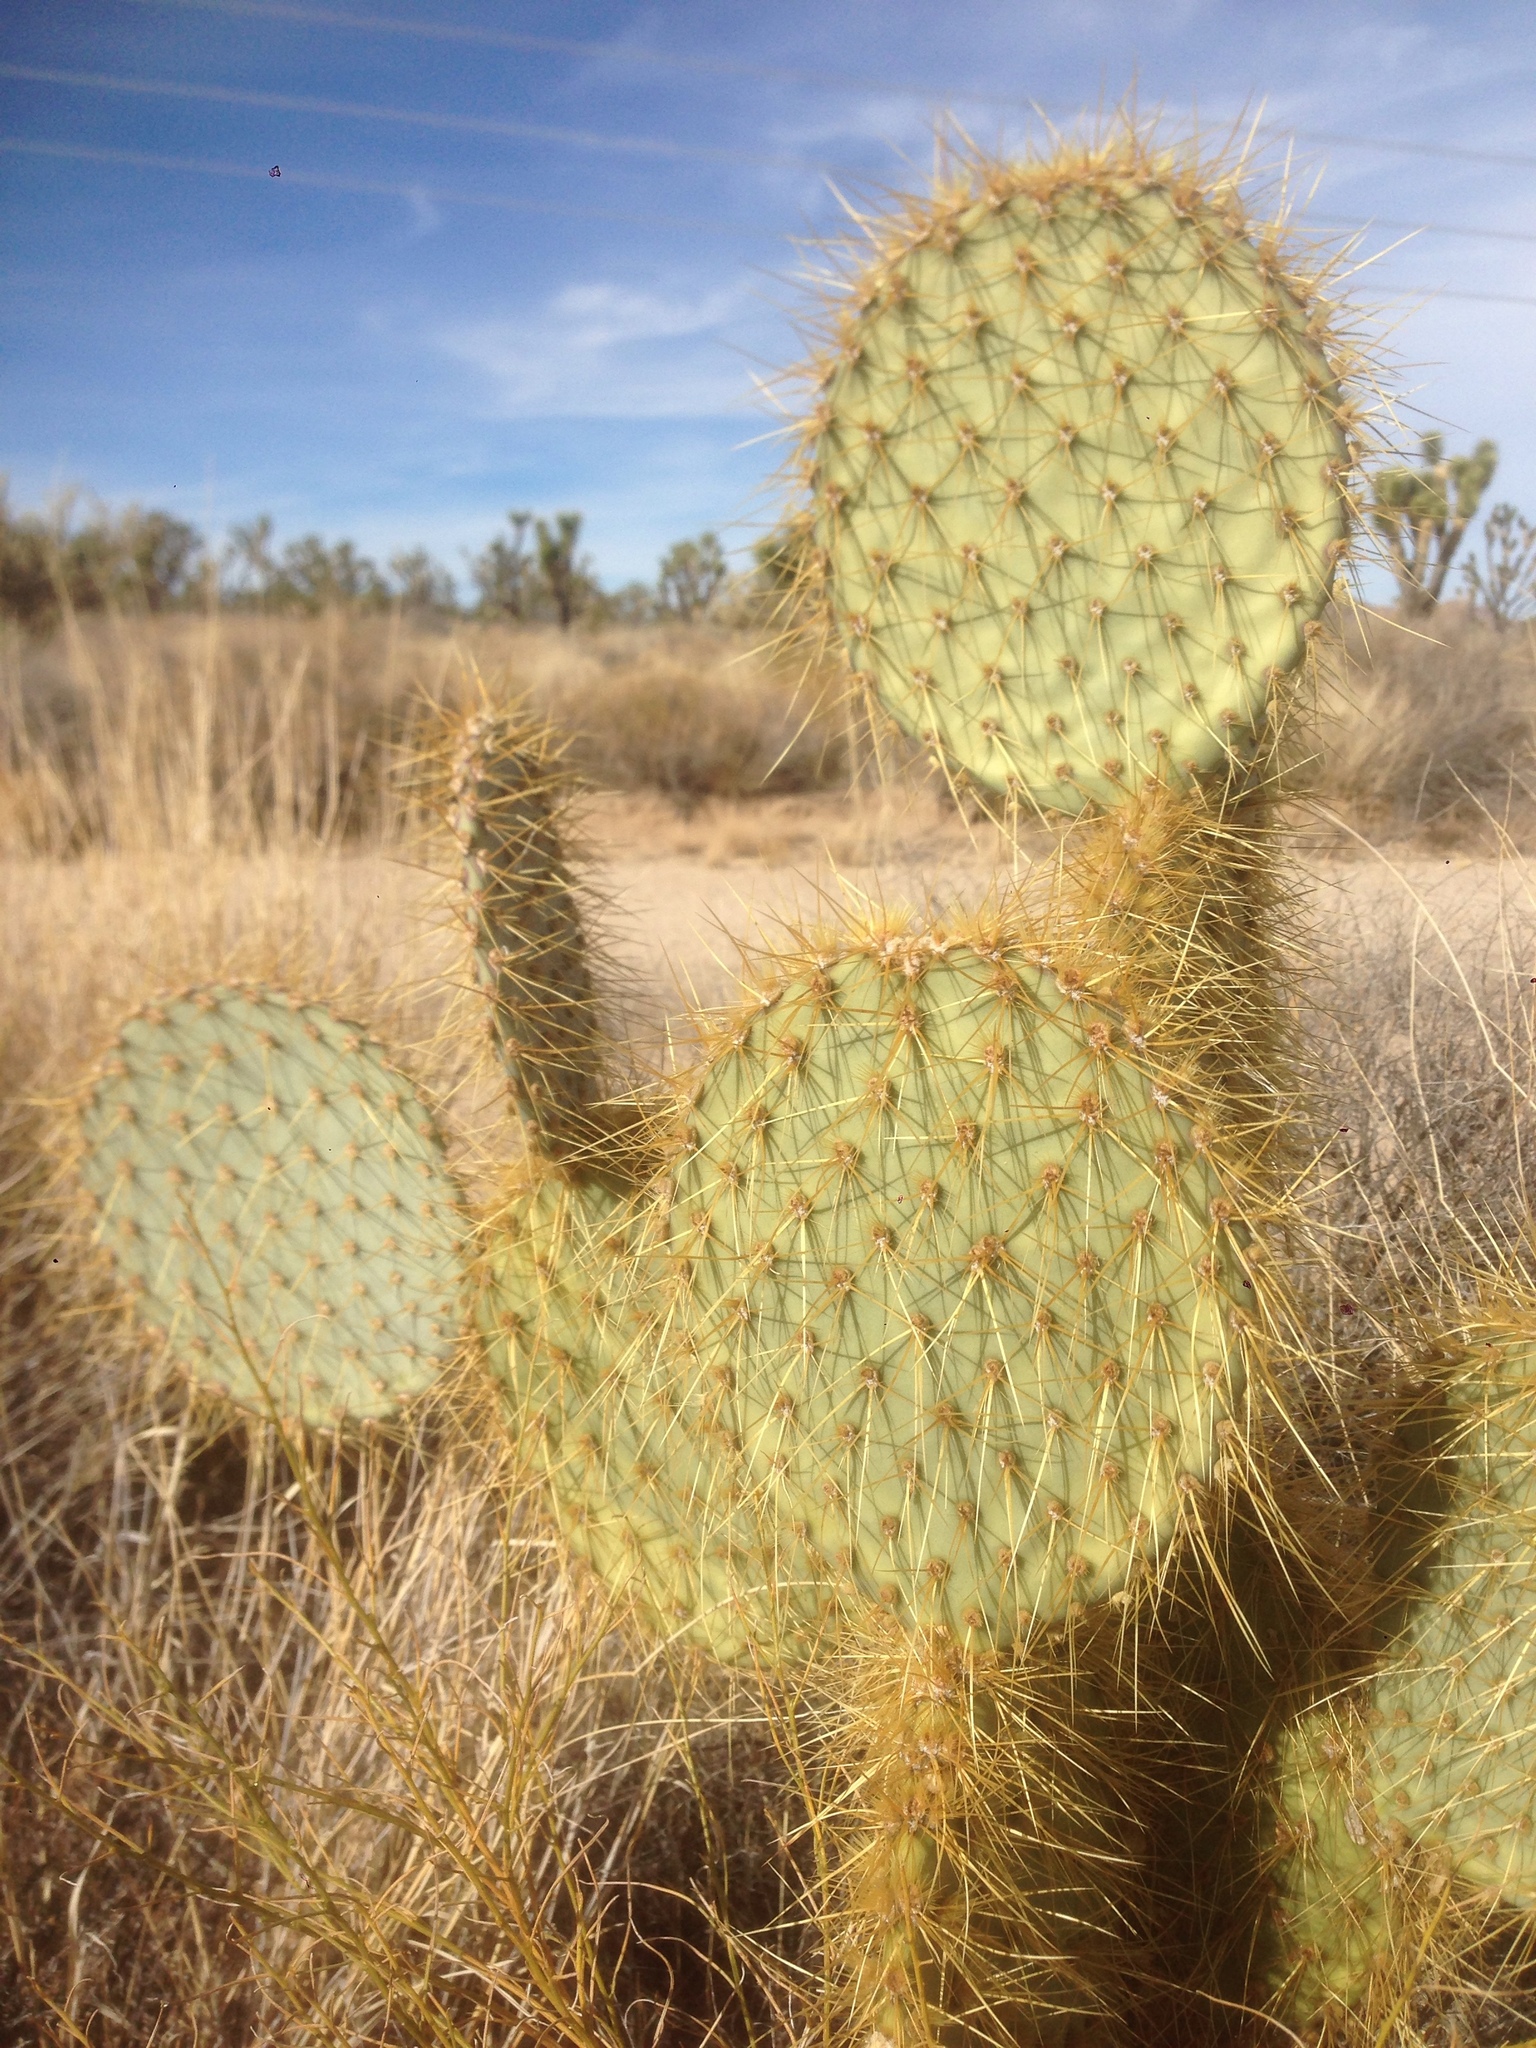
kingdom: Plantae
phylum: Tracheophyta
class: Magnoliopsida
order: Caryophyllales
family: Cactaceae
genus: Opuntia
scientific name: Opuntia chlorotica
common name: Dollar-joint prickly-pear
